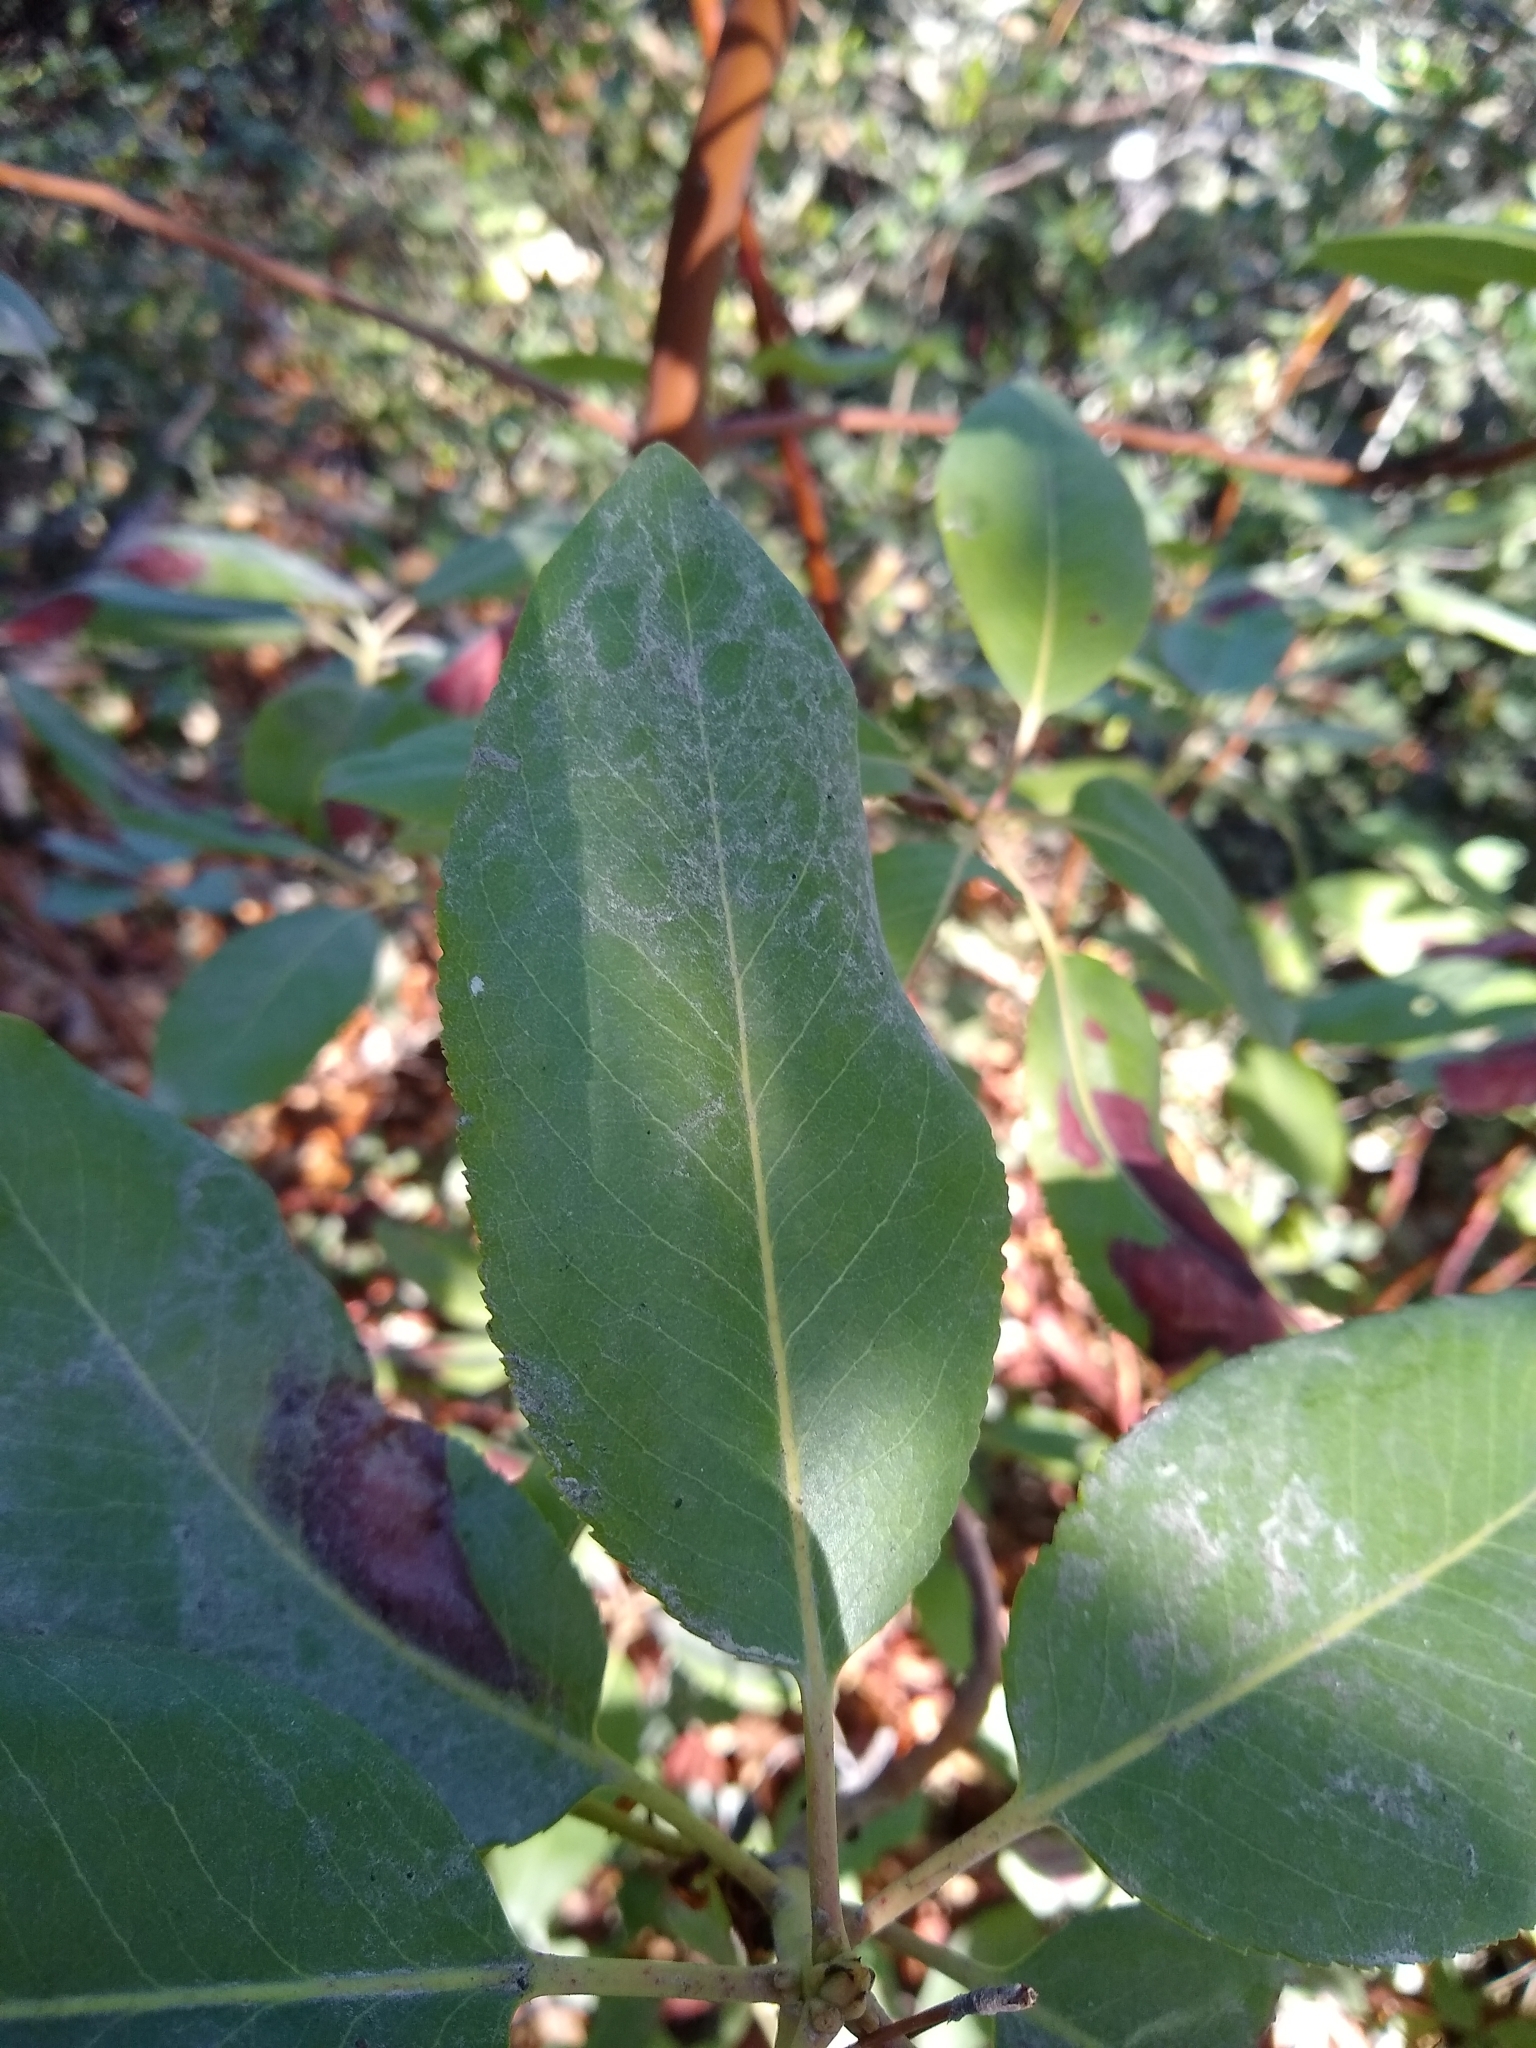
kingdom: Plantae
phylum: Tracheophyta
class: Magnoliopsida
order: Ericales
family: Ericaceae
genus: Arbutus
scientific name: Arbutus menziesii
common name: Pacific madrone
